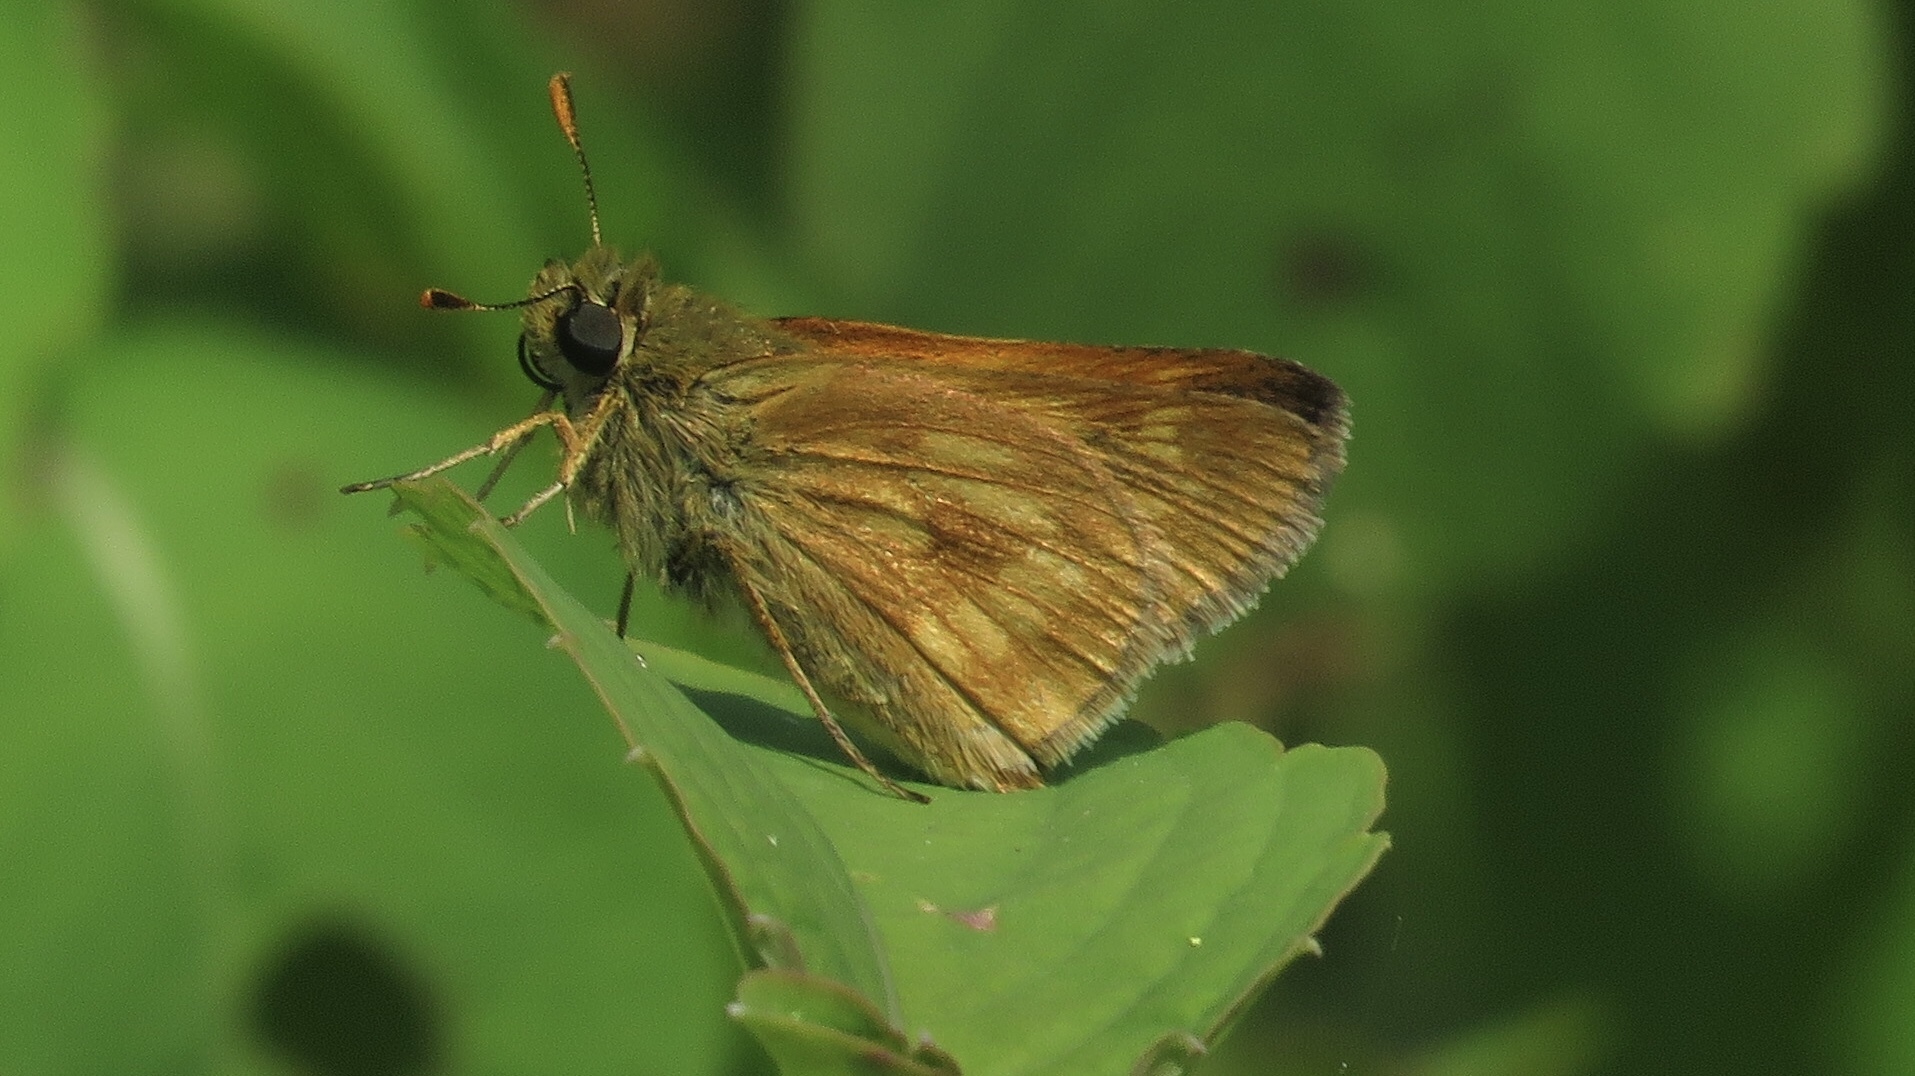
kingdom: Animalia
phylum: Arthropoda
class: Insecta
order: Lepidoptera
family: Hesperiidae
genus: Polites
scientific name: Polites mystic
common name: Long dash
